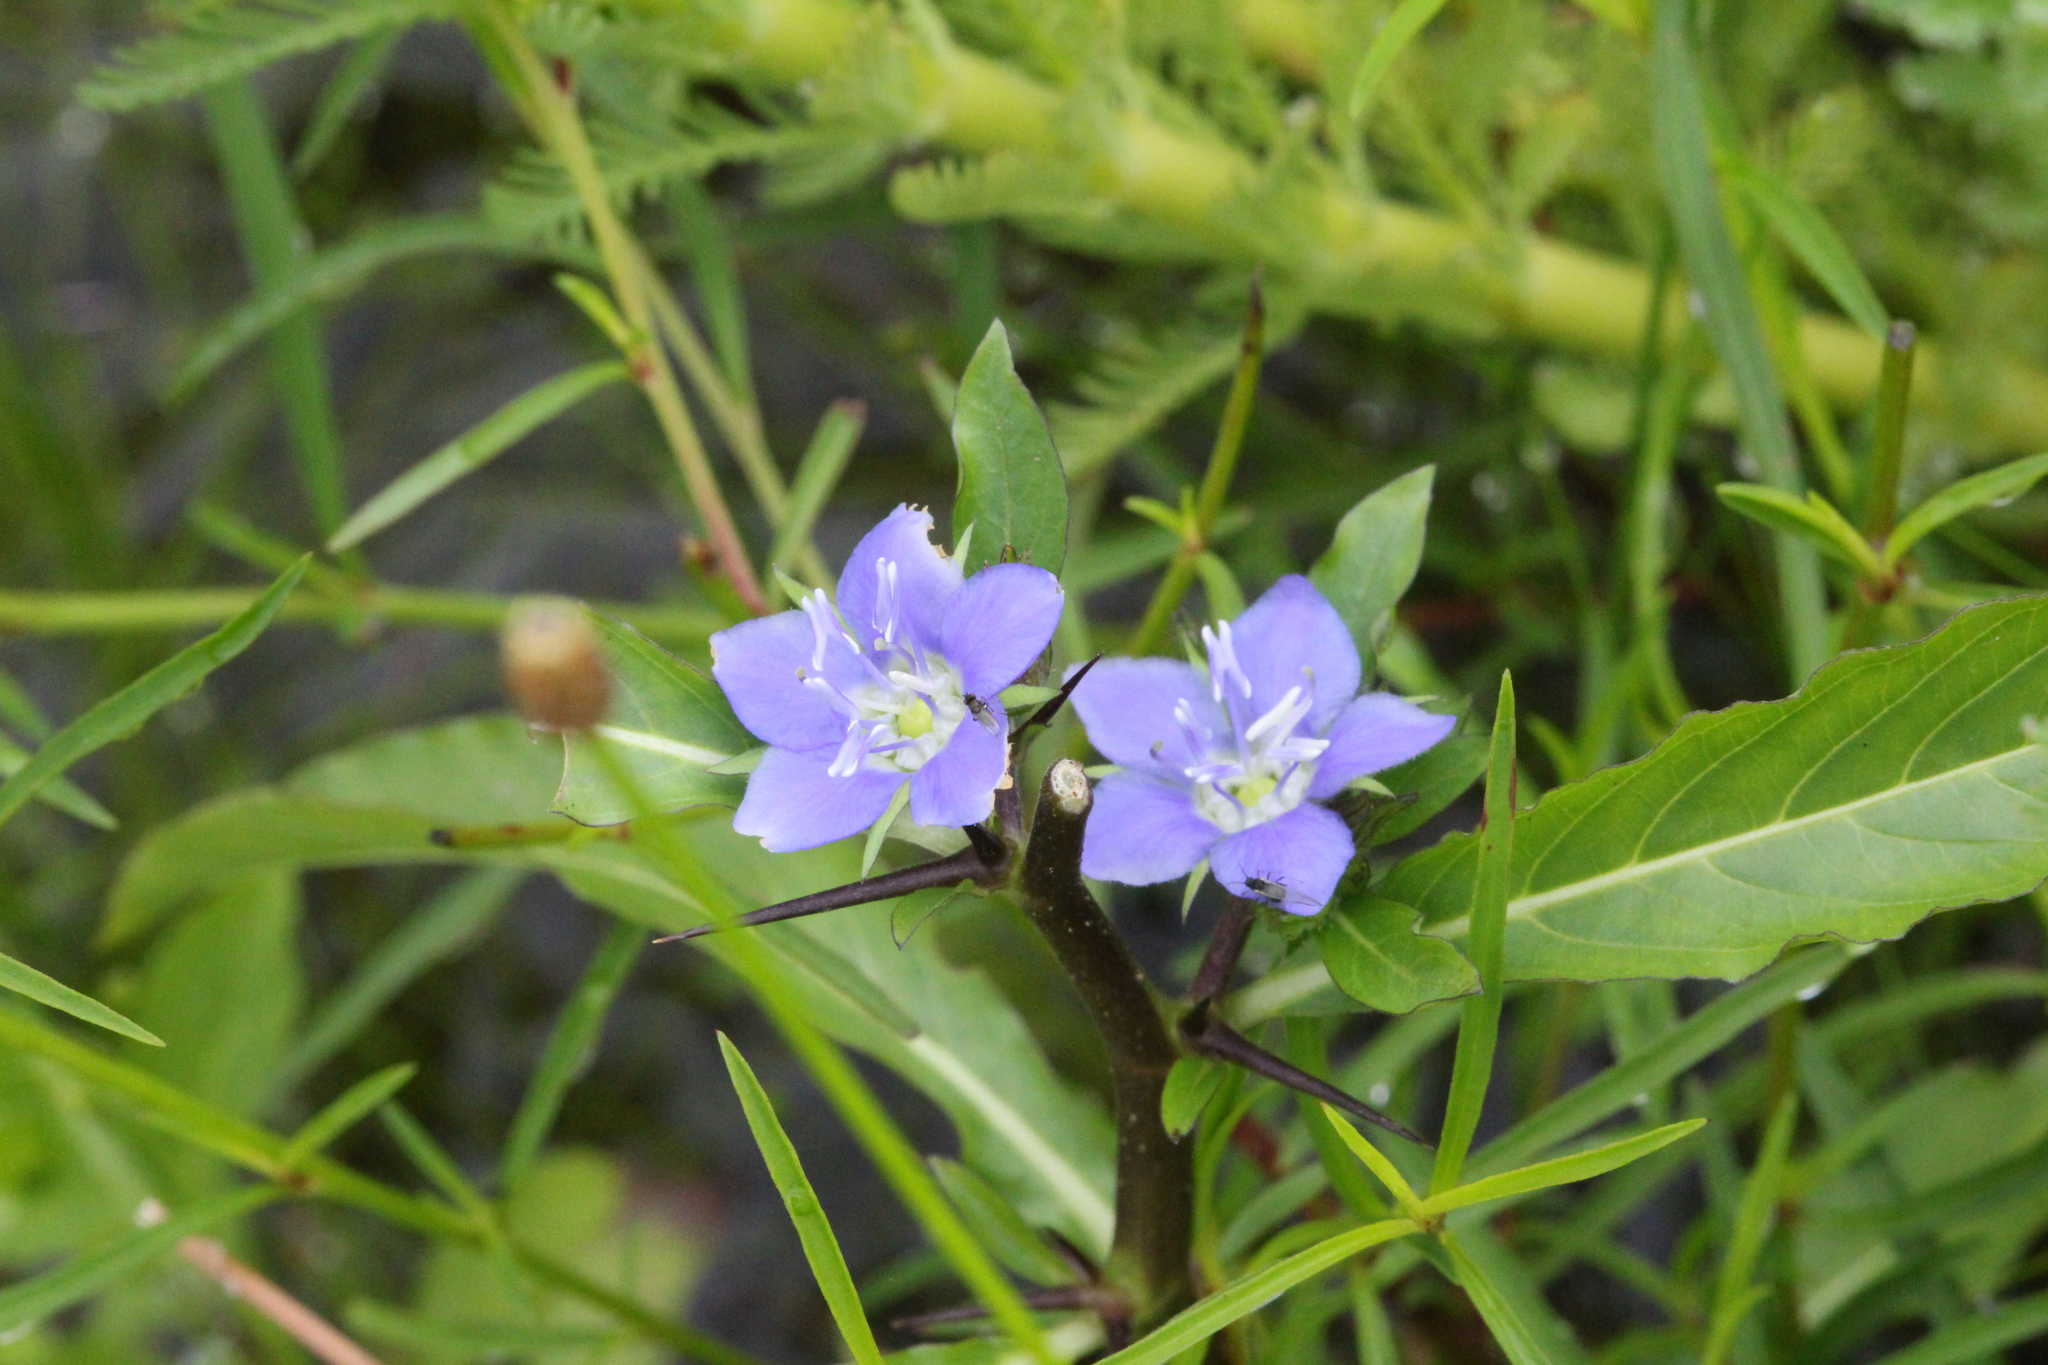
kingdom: Plantae
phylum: Tracheophyta
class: Magnoliopsida
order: Solanales
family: Hydroleaceae
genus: Hydrolea
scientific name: Hydrolea uniflora
